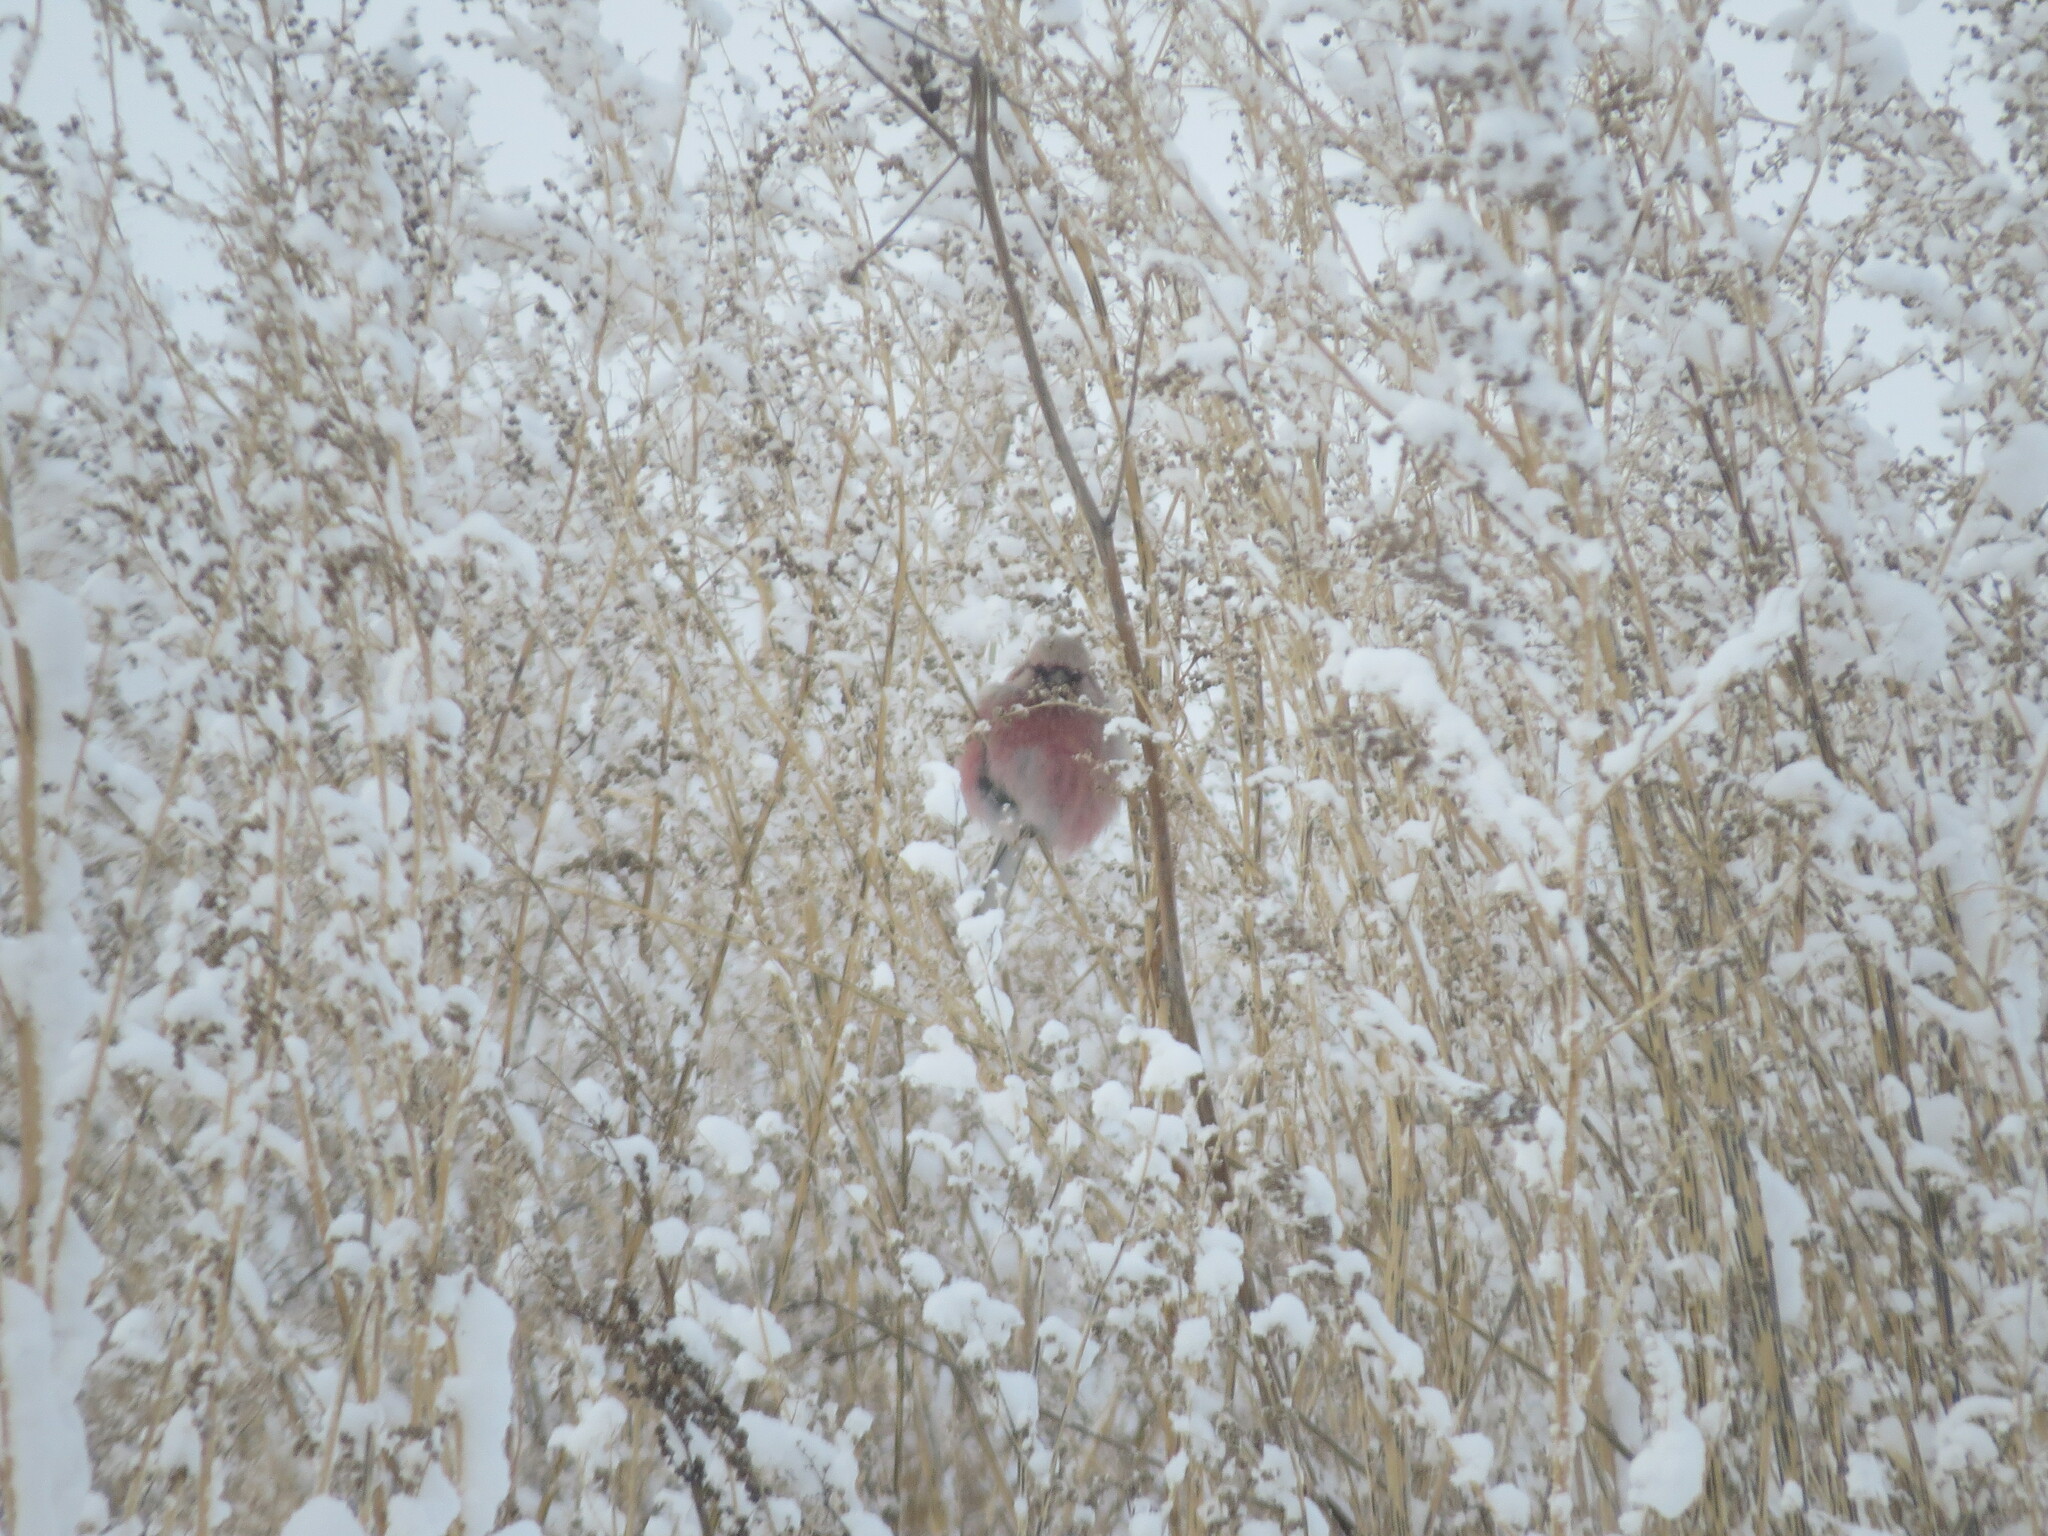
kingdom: Animalia
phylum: Chordata
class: Aves
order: Passeriformes
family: Fringillidae
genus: Carpodacus
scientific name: Carpodacus sibiricus
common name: Long-tailed rosefinch
